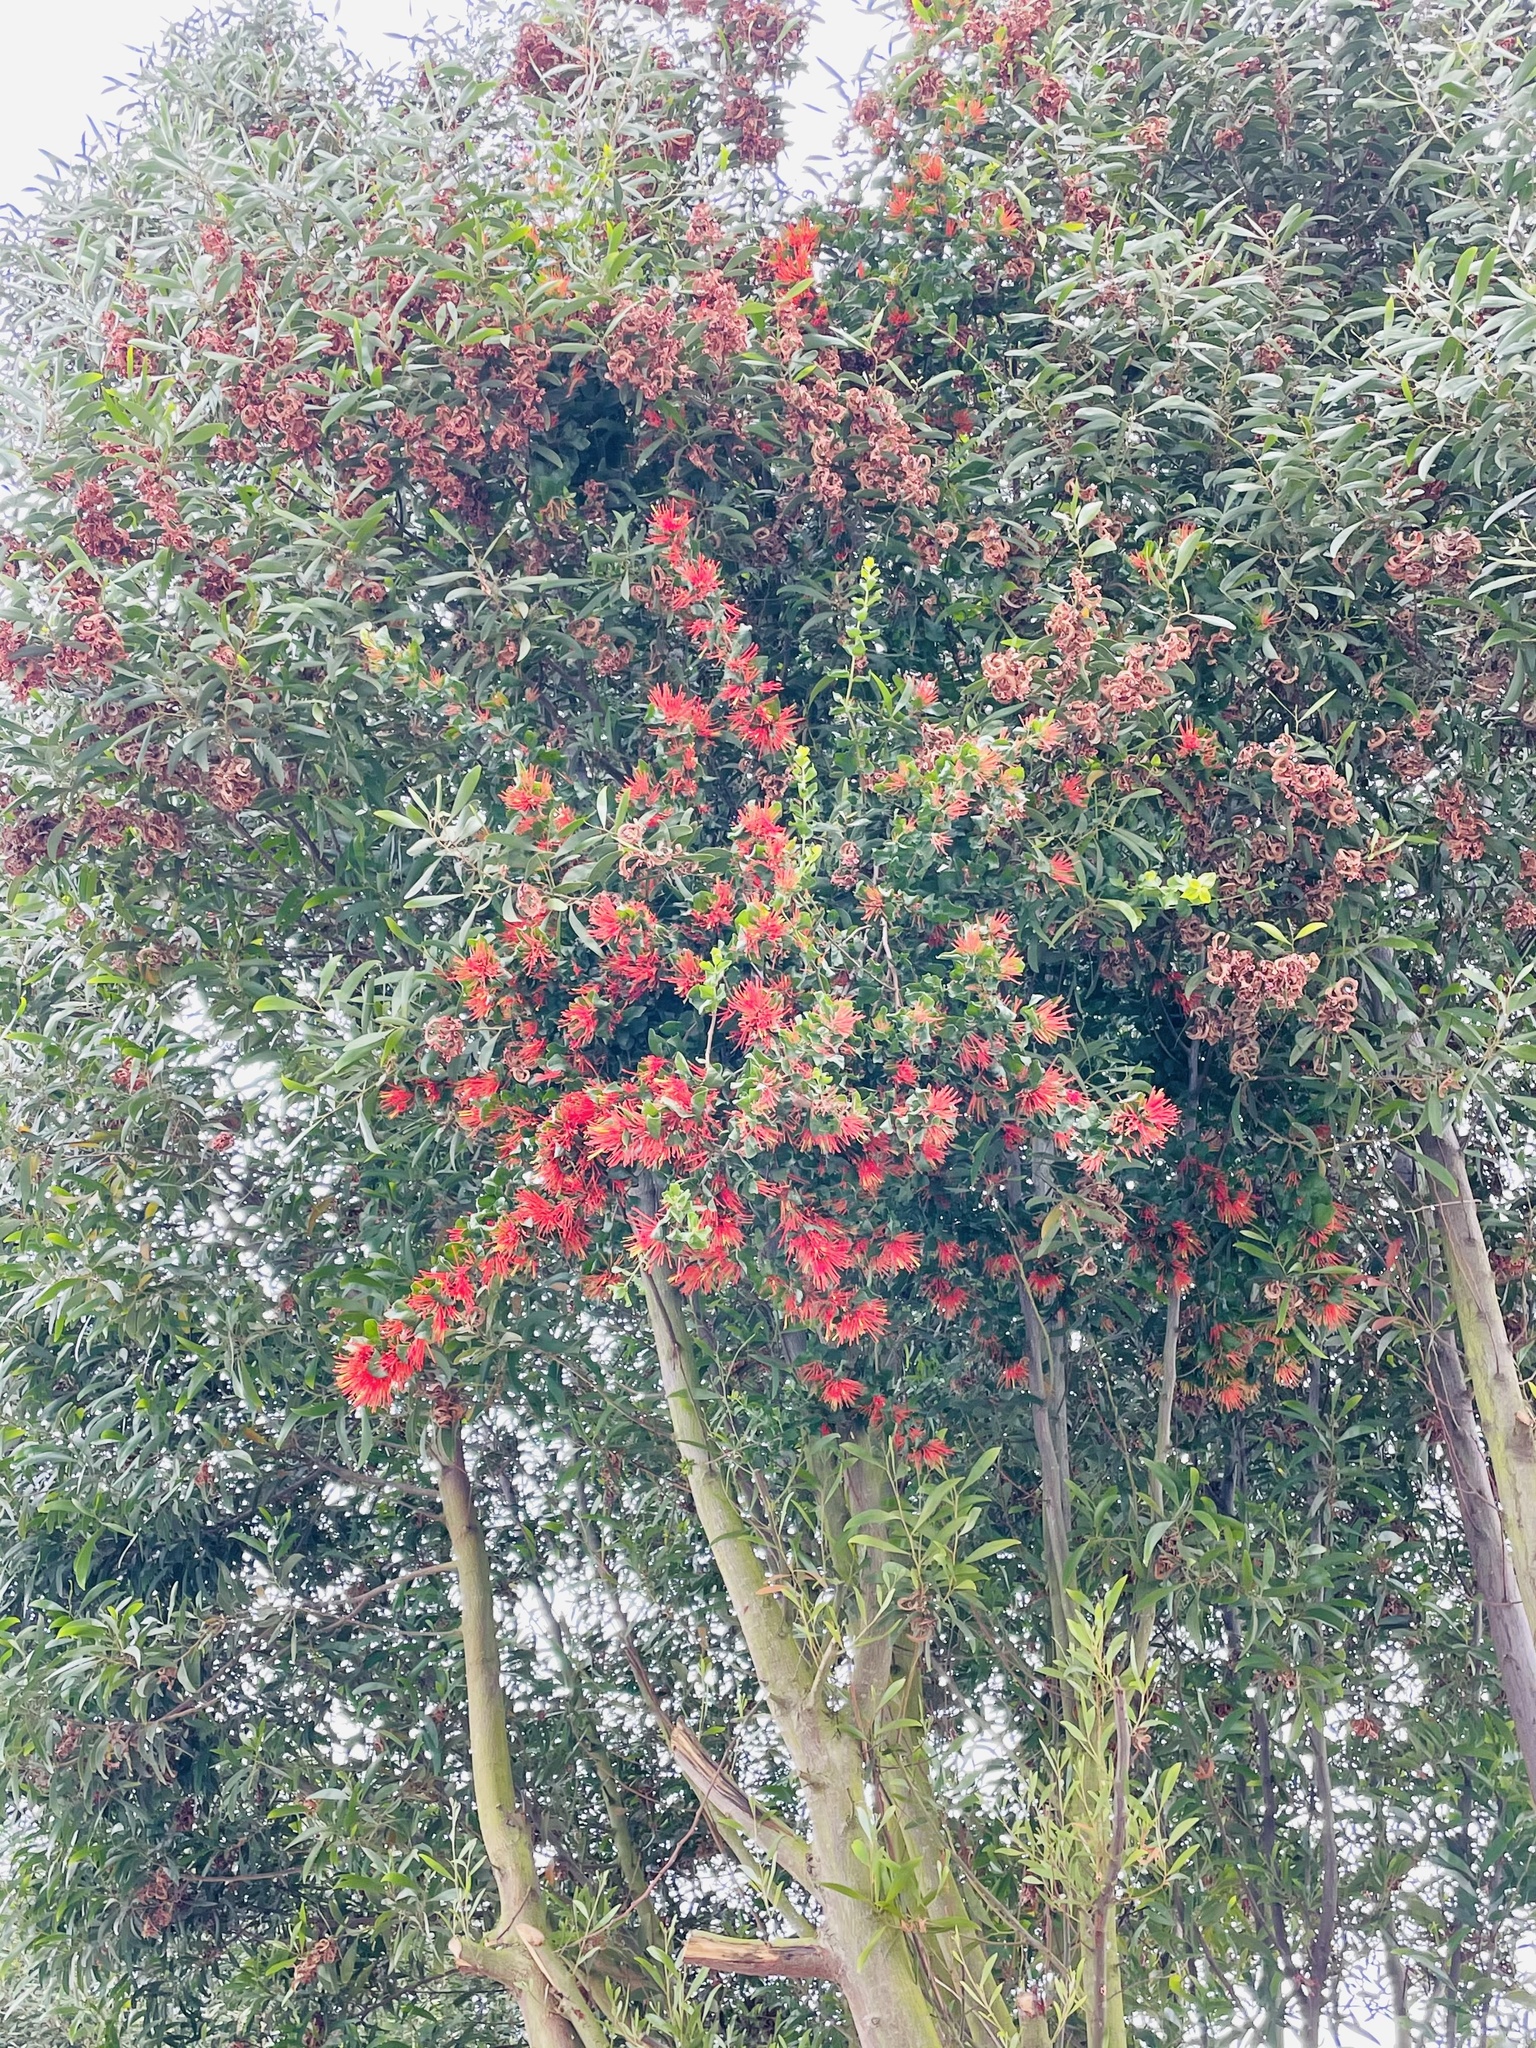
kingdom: Plantae
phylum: Tracheophyta
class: Magnoliopsida
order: Santalales
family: Loranthaceae
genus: Tristerix
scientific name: Tristerix corymbosus
